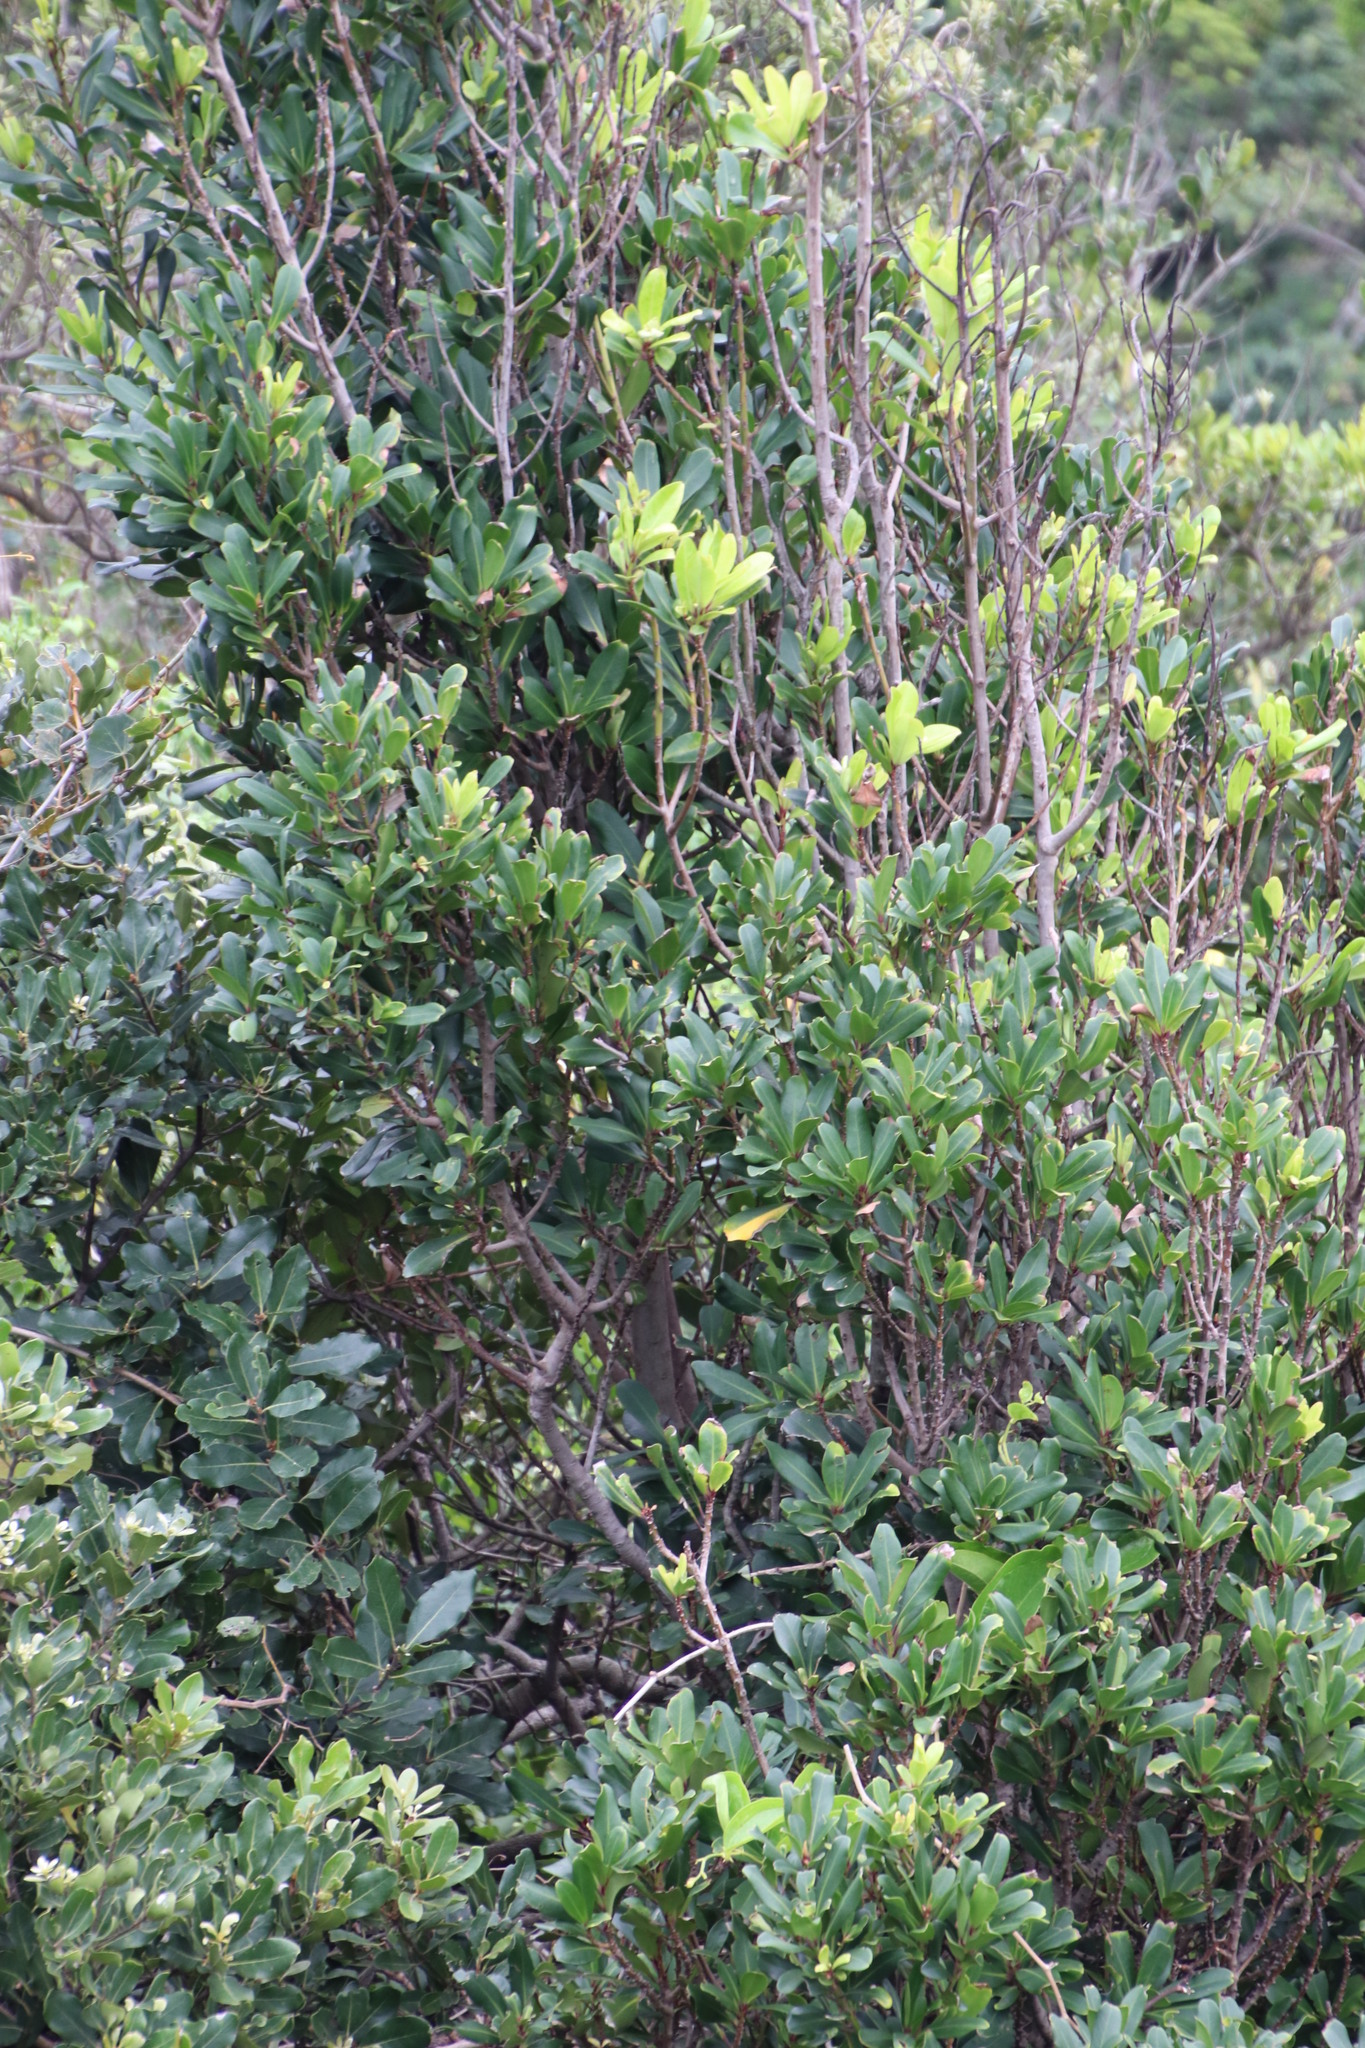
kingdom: Plantae
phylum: Tracheophyta
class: Magnoliopsida
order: Ericales
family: Primulaceae
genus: Myrsine
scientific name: Myrsine melanophloeos
